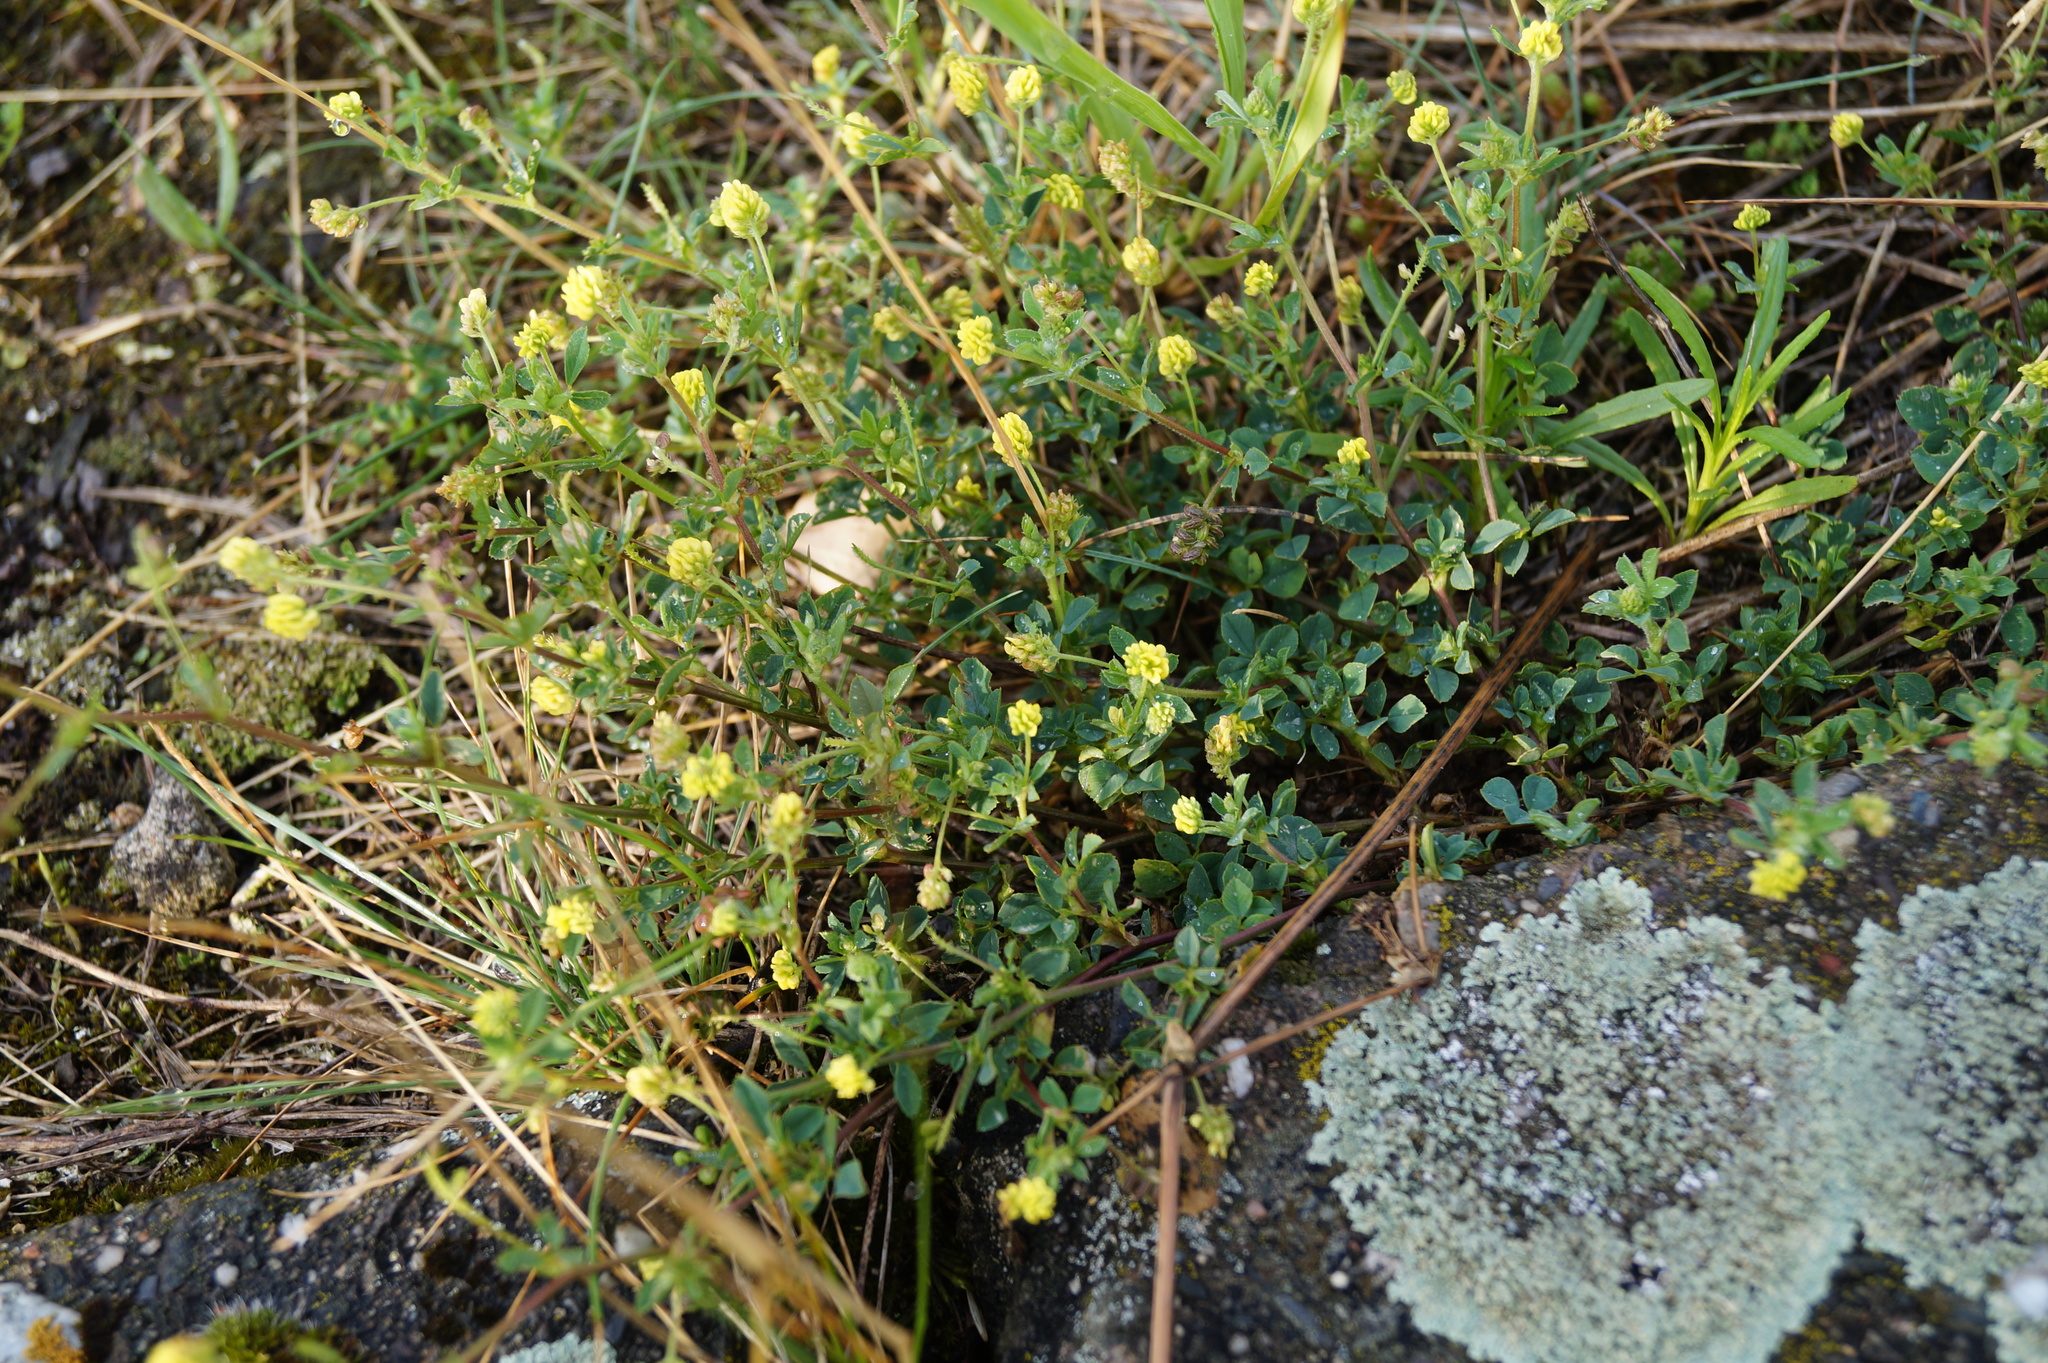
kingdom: Plantae
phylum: Tracheophyta
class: Magnoliopsida
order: Fabales
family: Fabaceae
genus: Medicago
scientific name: Medicago lupulina
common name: Black medick
